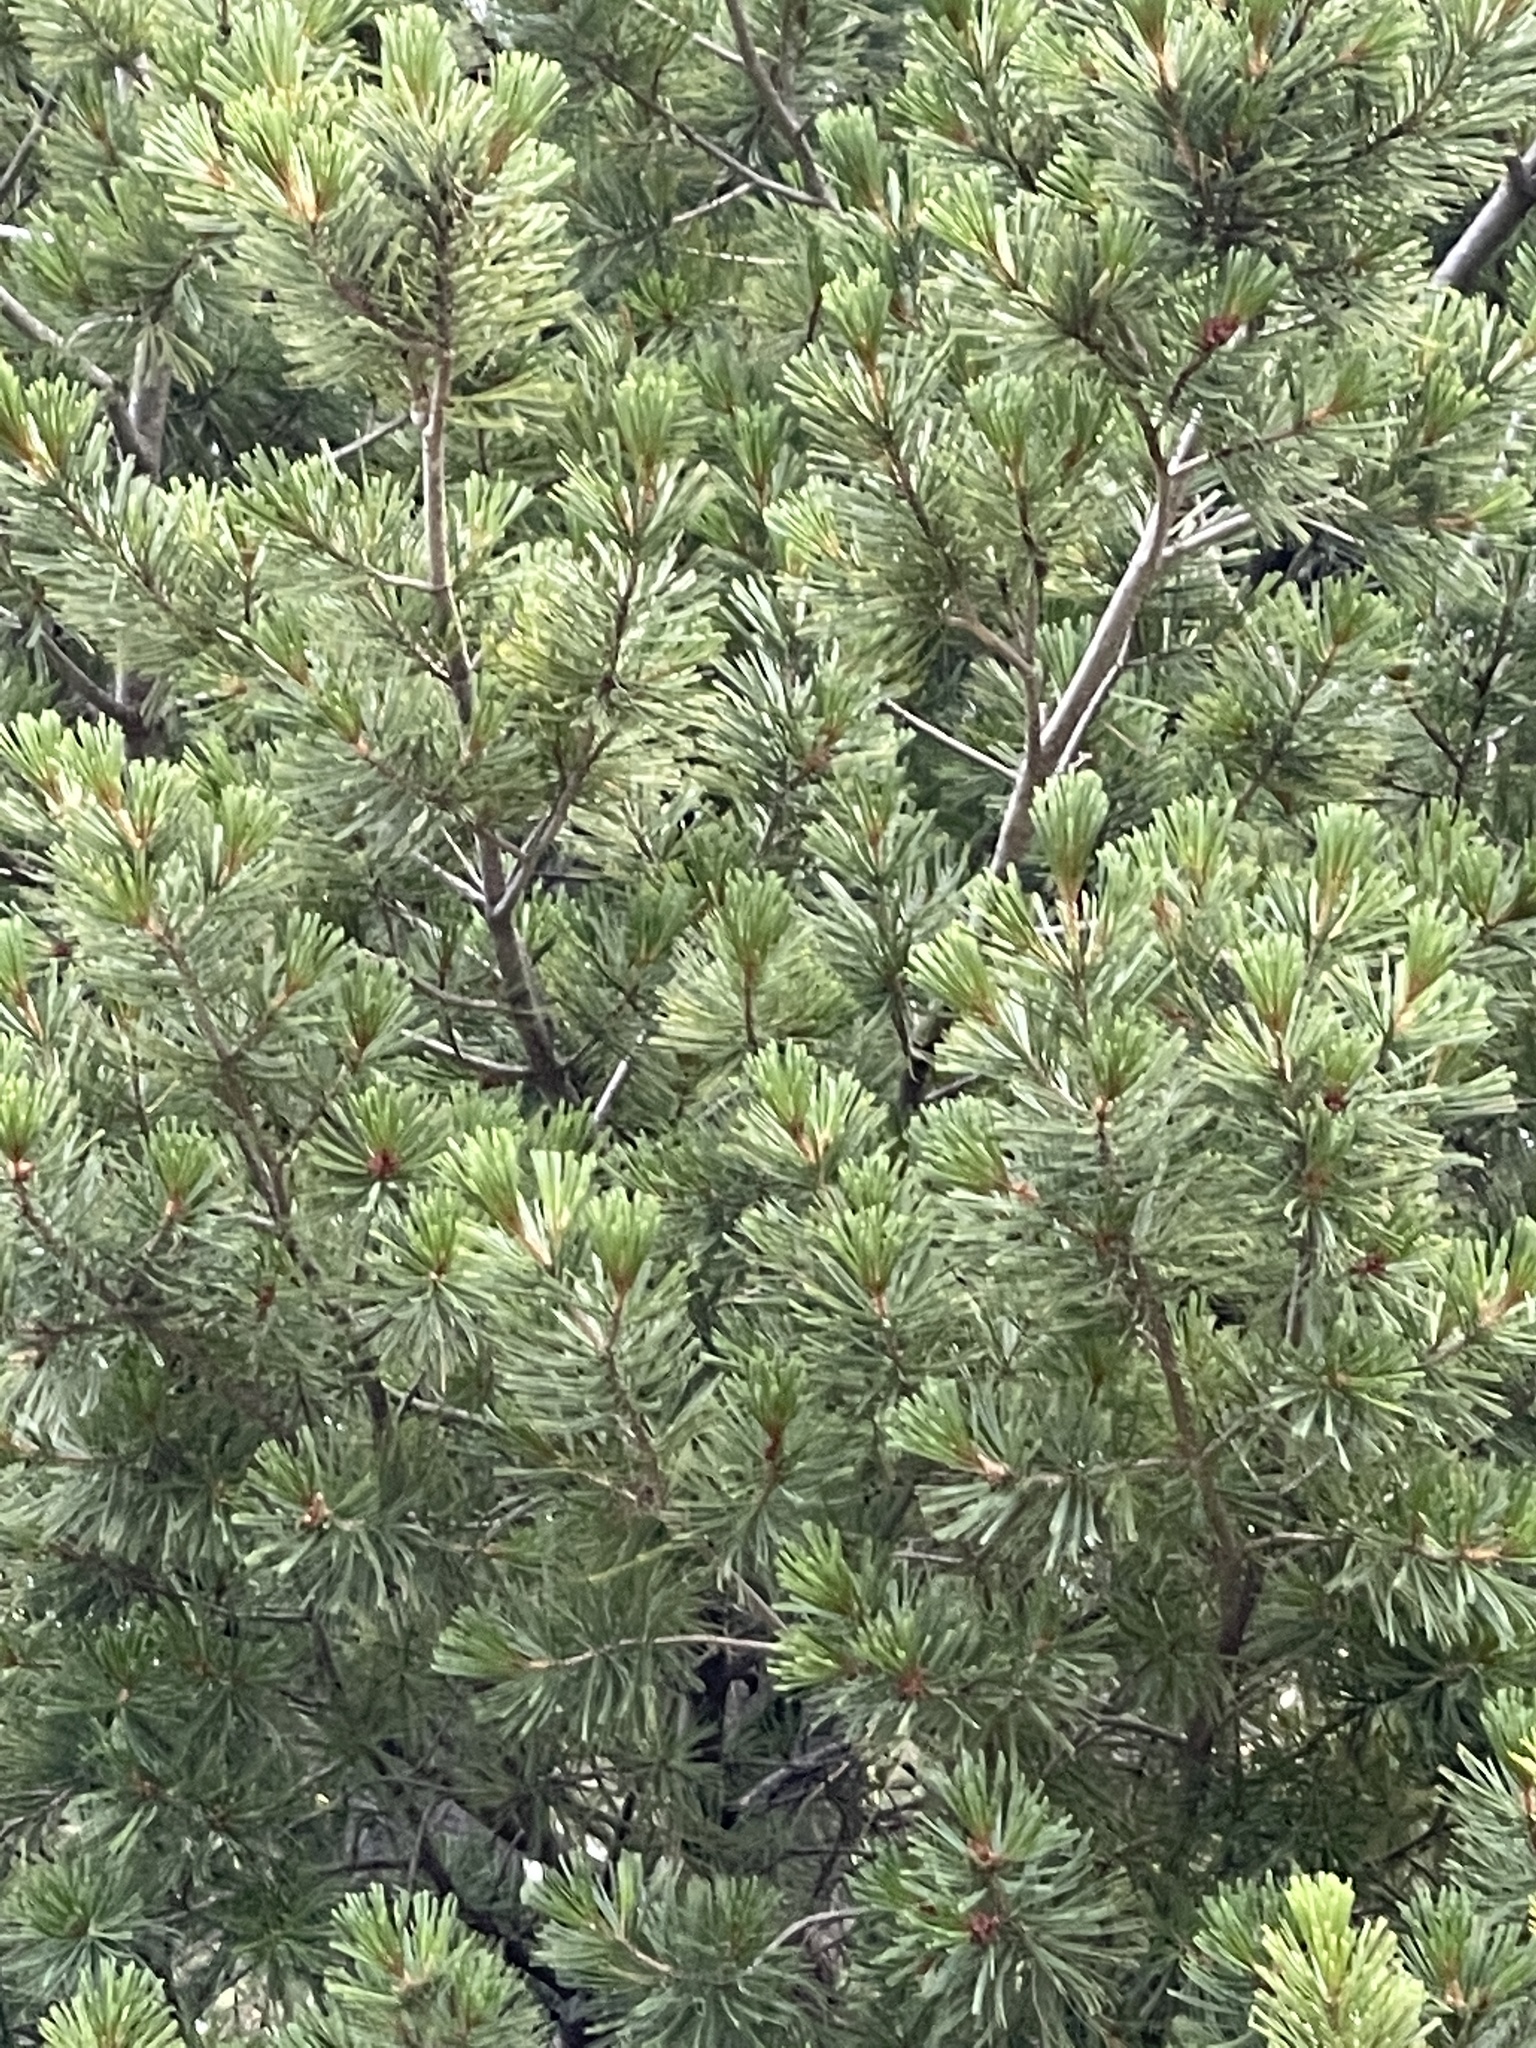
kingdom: Plantae
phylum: Tracheophyta
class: Pinopsida
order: Pinales
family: Pinaceae
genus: Pinus
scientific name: Pinus strobiformis
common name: Southwestern white pine
